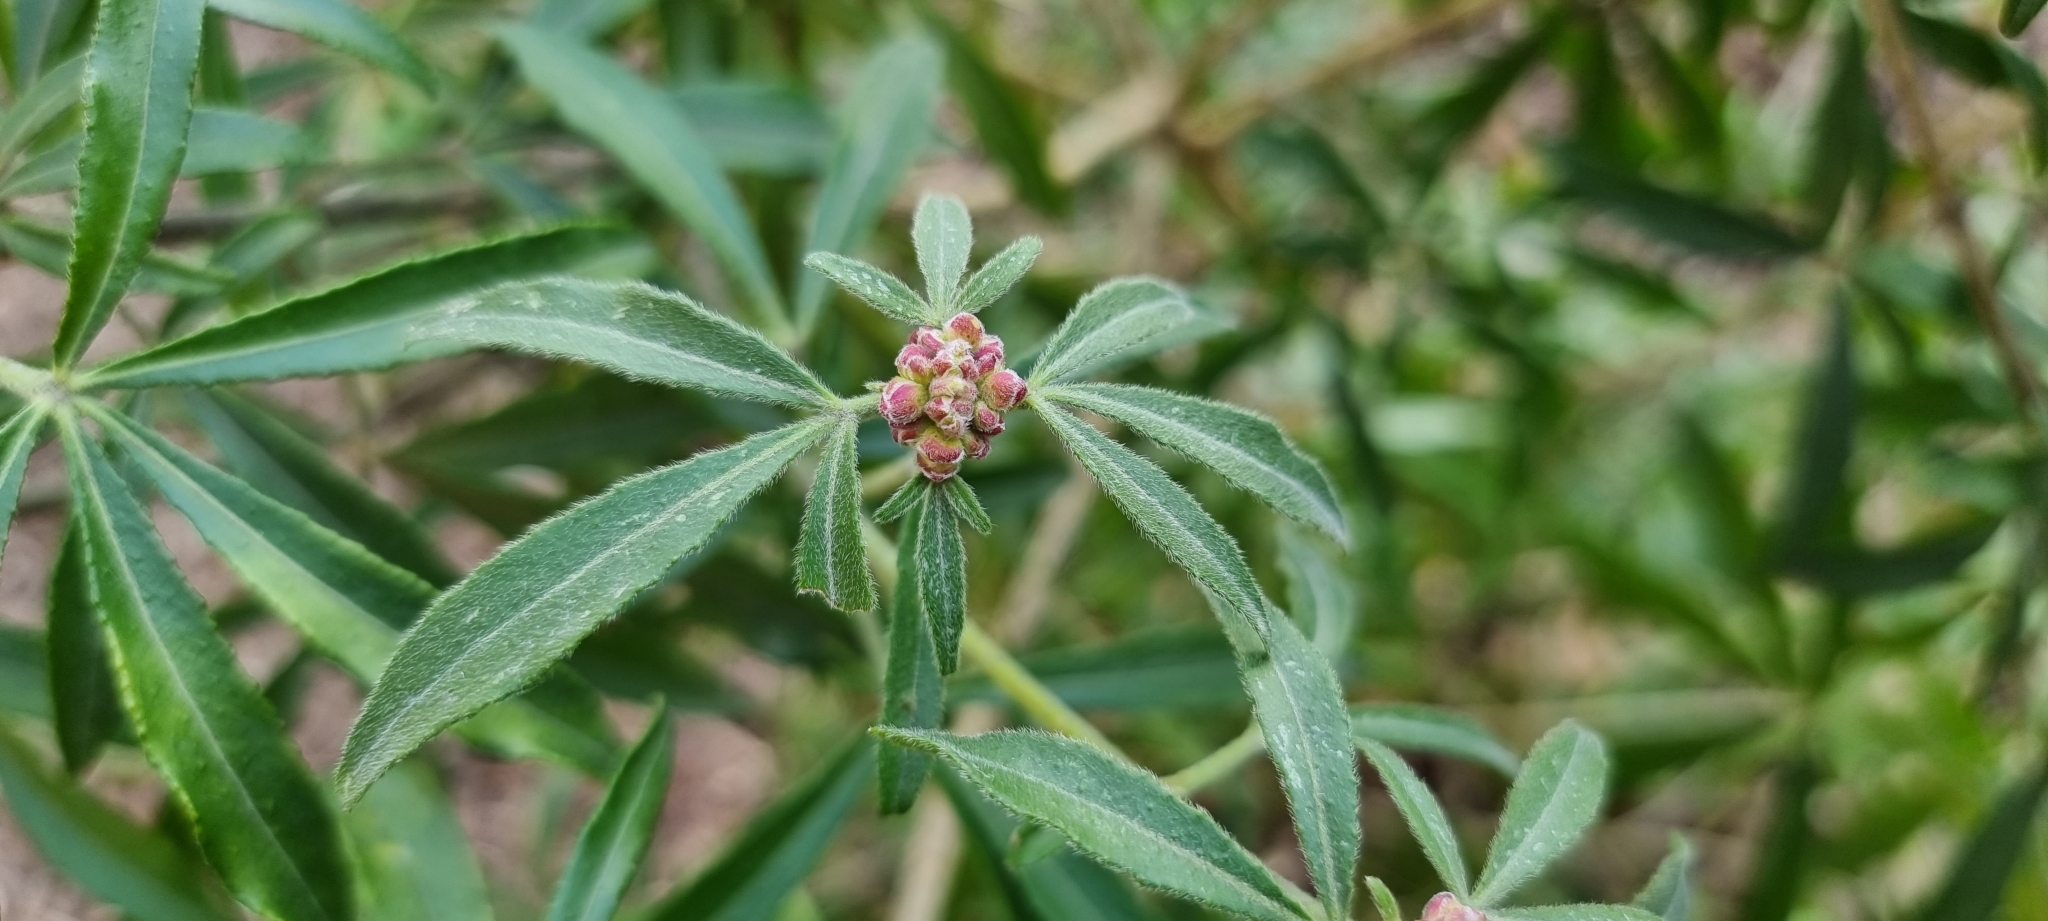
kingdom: Plantae
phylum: Tracheophyta
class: Magnoliopsida
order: Sapindales
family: Rutaceae
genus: Choisya
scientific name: Choisya ternata
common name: Mexican orange
